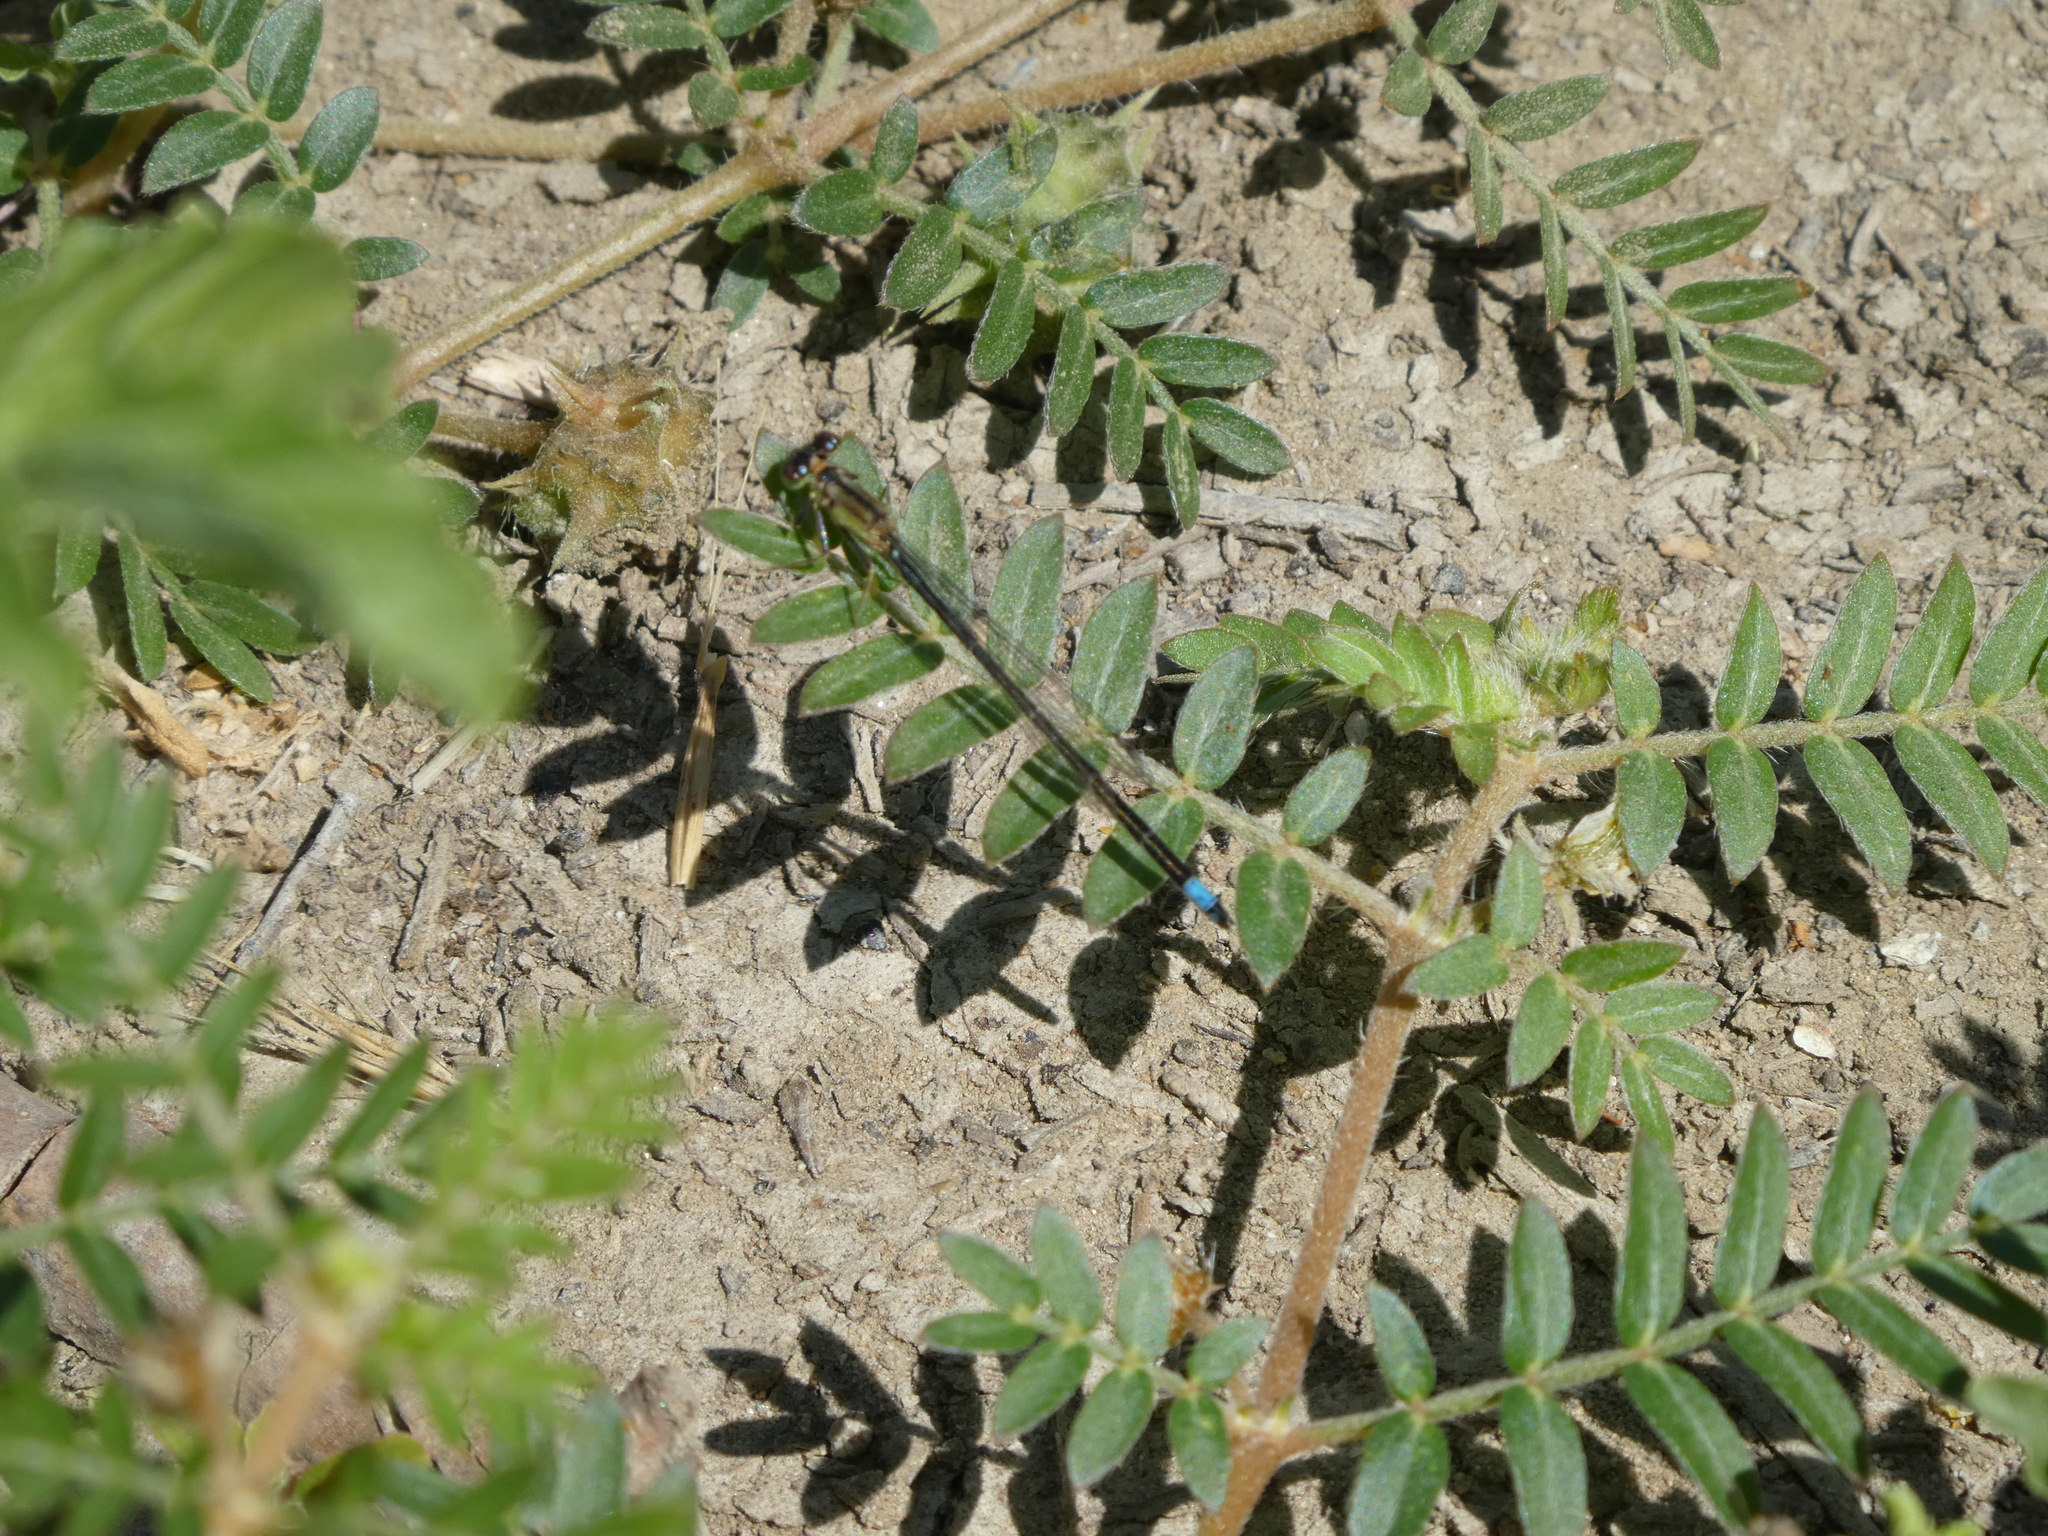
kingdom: Animalia
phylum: Arthropoda
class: Insecta
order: Odonata
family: Coenagrionidae
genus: Ischnura
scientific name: Ischnura cervula
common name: Pacific forktail
